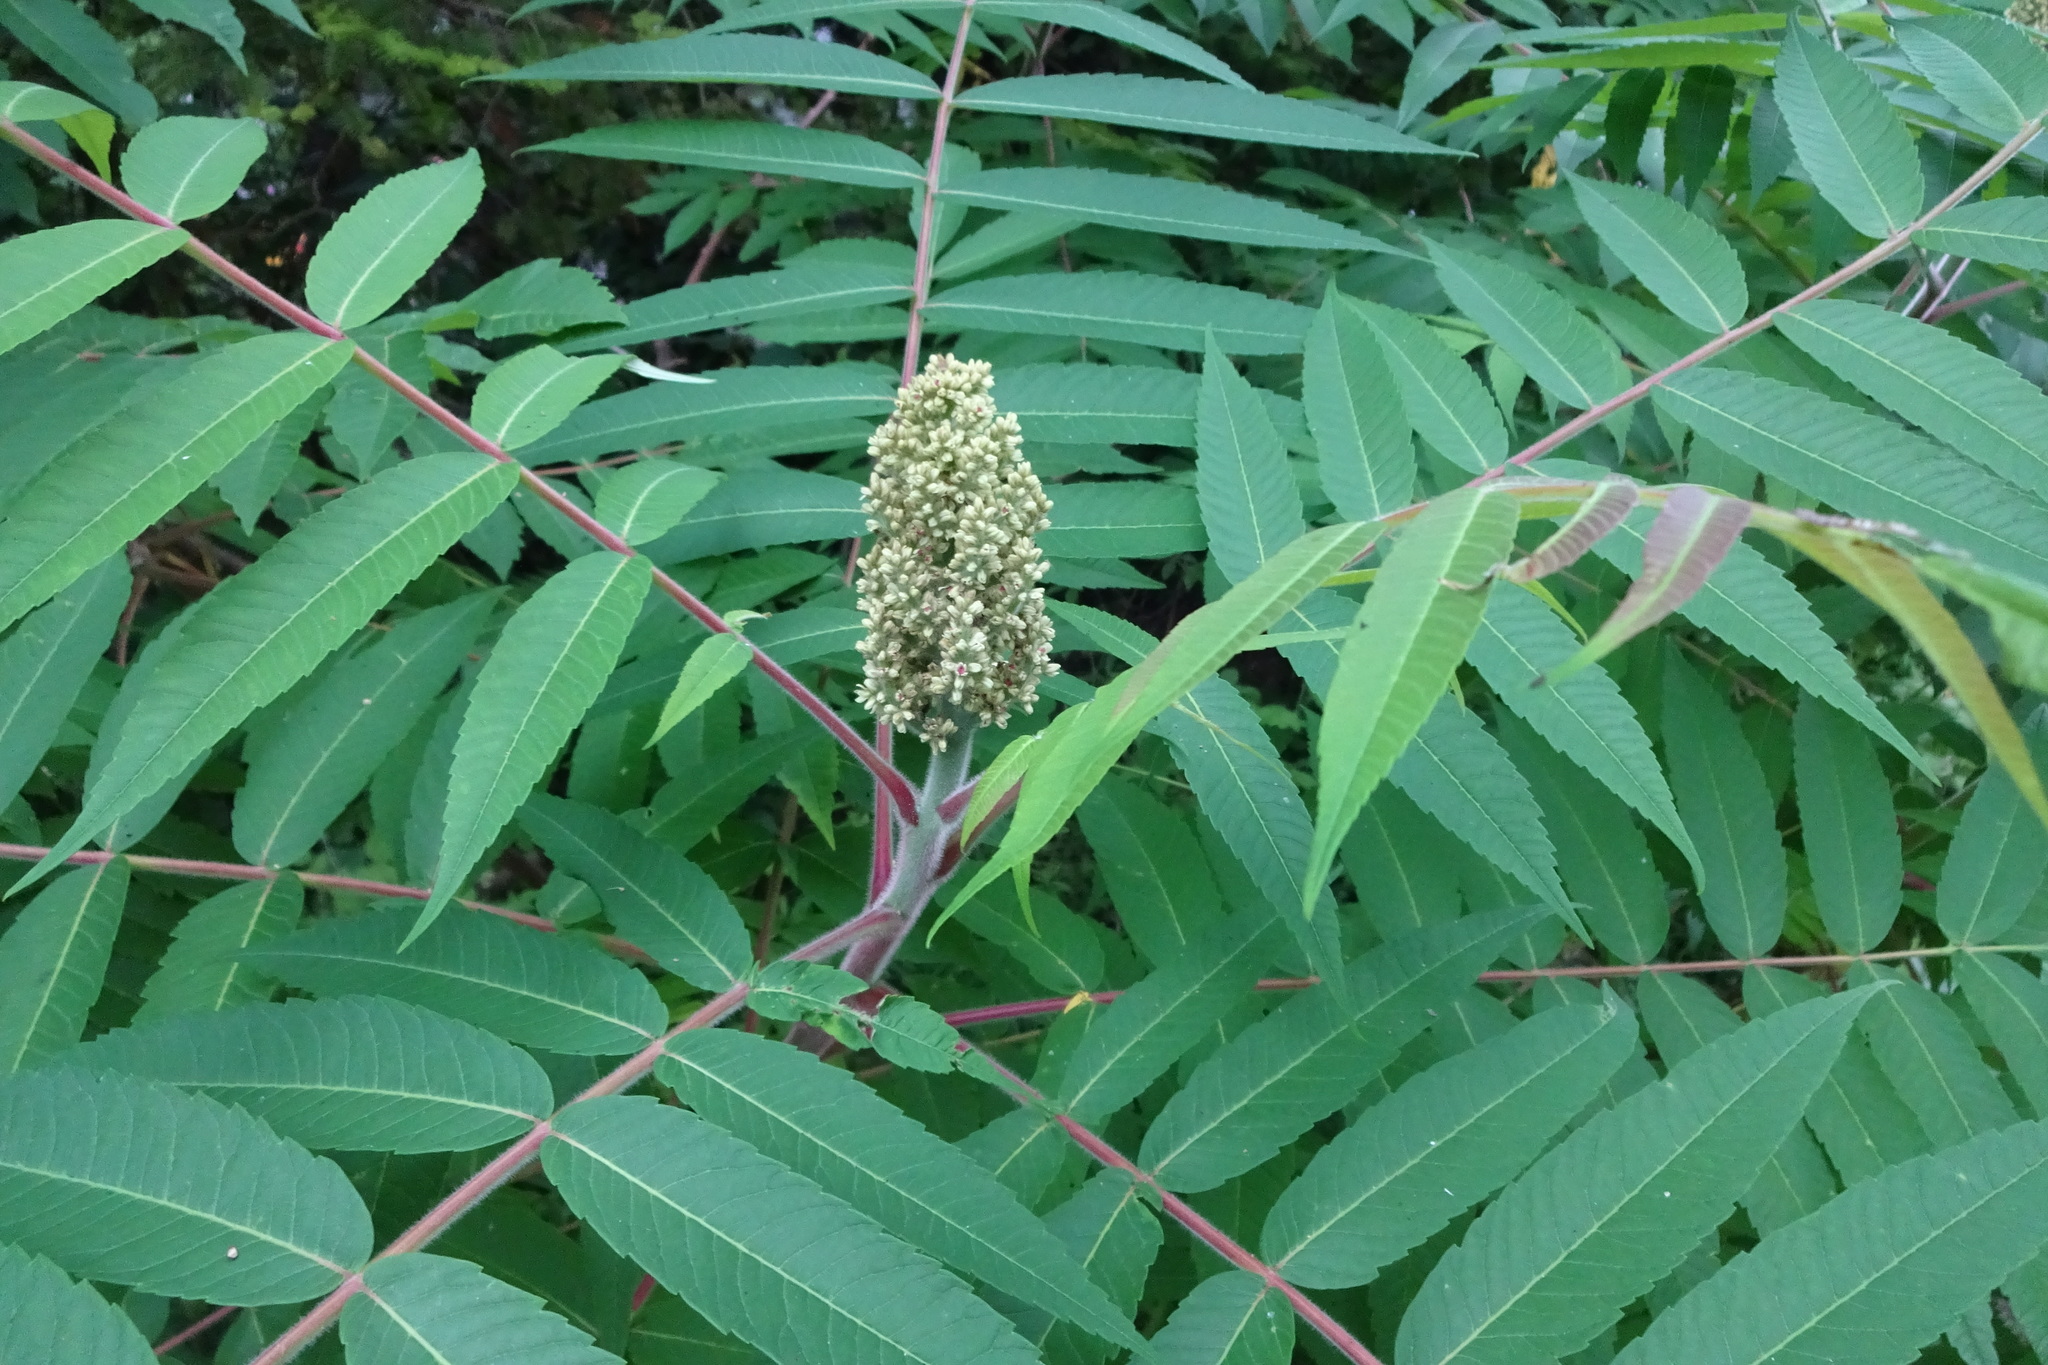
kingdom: Plantae
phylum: Tracheophyta
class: Magnoliopsida
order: Sapindales
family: Anacardiaceae
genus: Rhus
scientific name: Rhus typhina
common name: Staghorn sumac
